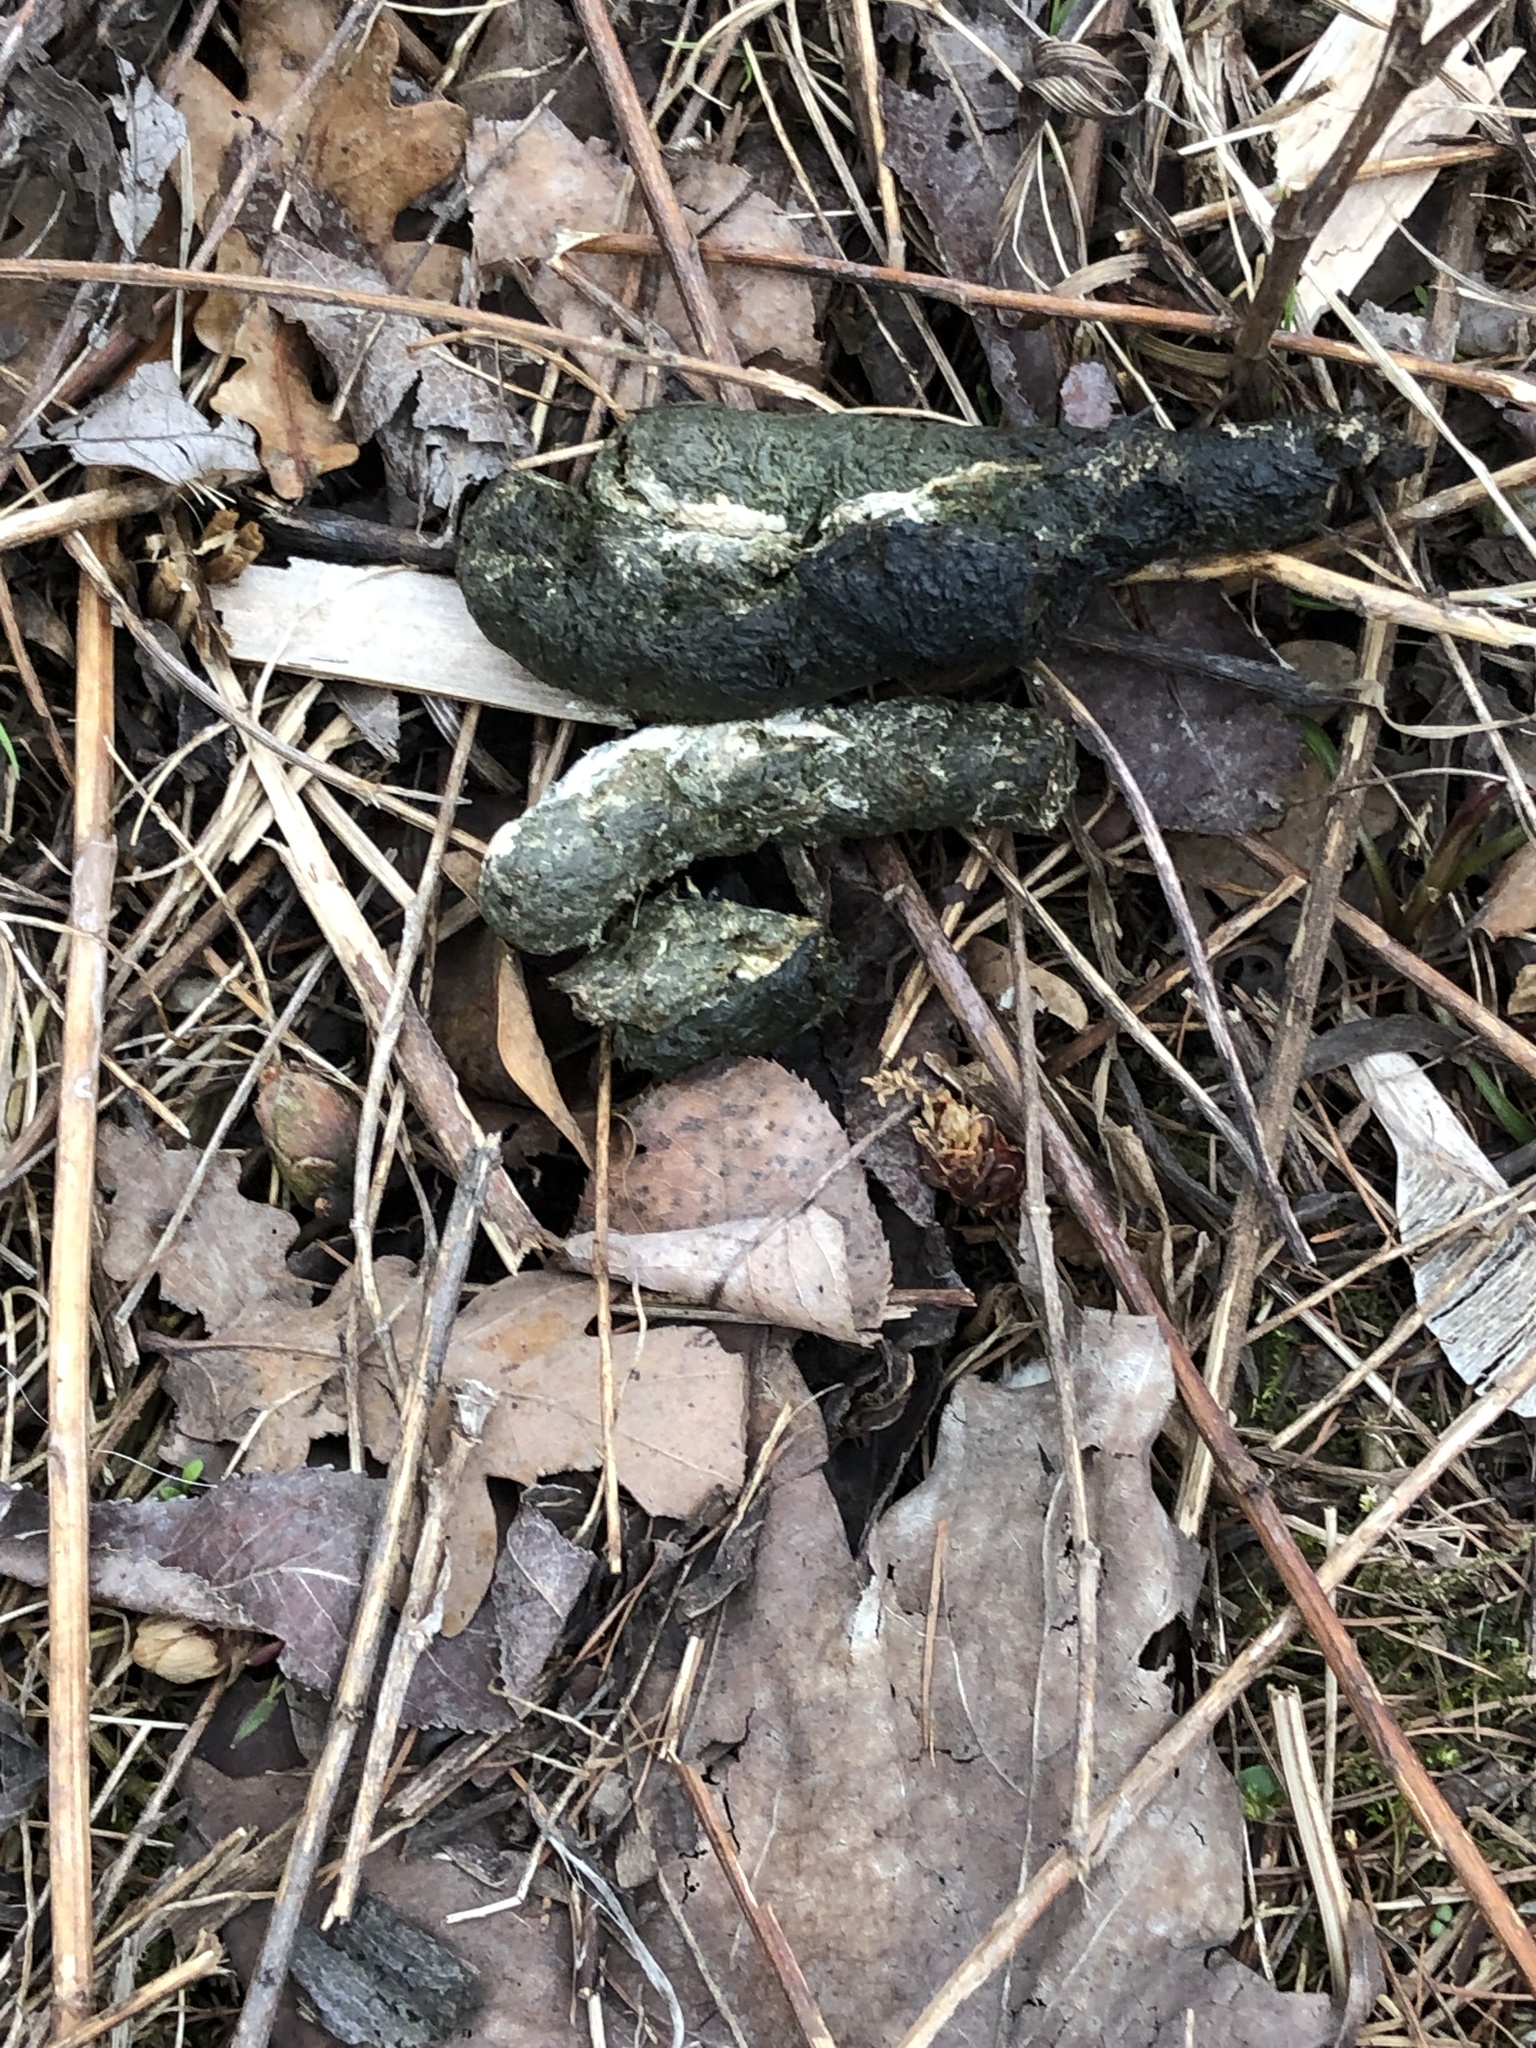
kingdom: Animalia
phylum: Chordata
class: Aves
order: Anseriformes
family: Anatidae
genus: Branta
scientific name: Branta canadensis
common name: Canada goose
